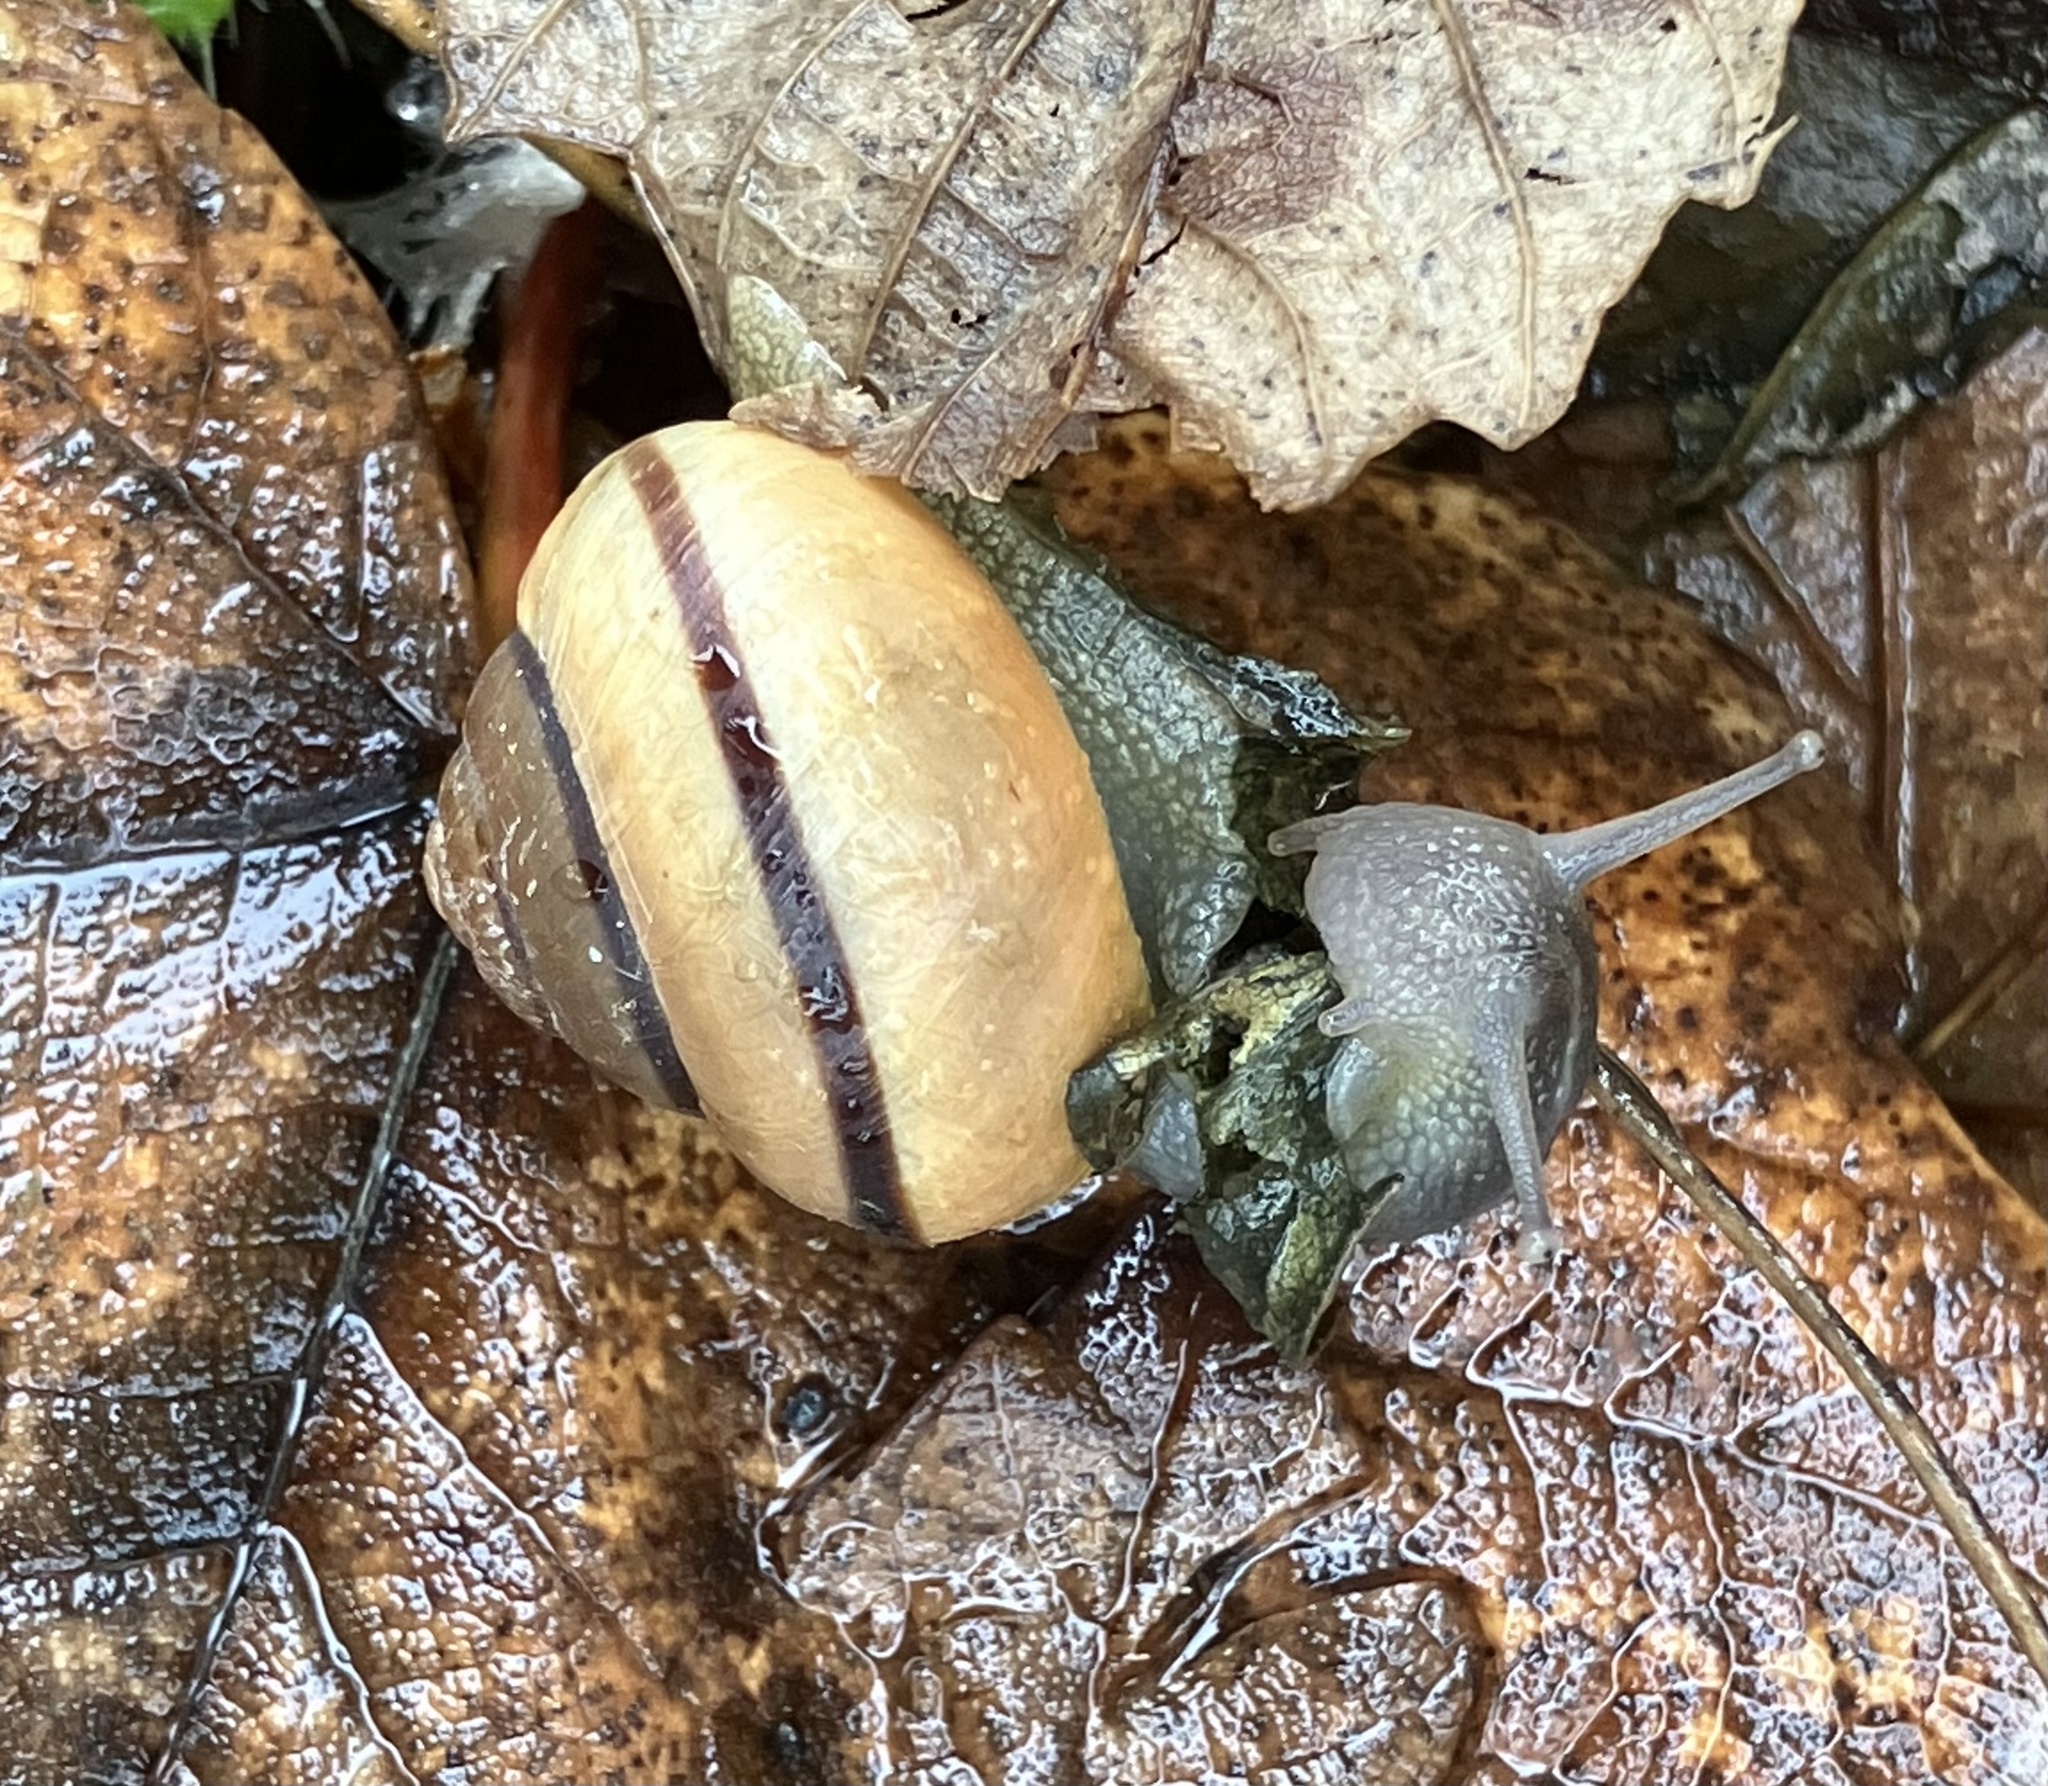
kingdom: Animalia
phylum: Mollusca
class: Gastropoda
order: Stylommatophora
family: Helicidae
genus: Cepaea
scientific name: Cepaea nemoralis
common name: Grovesnail
